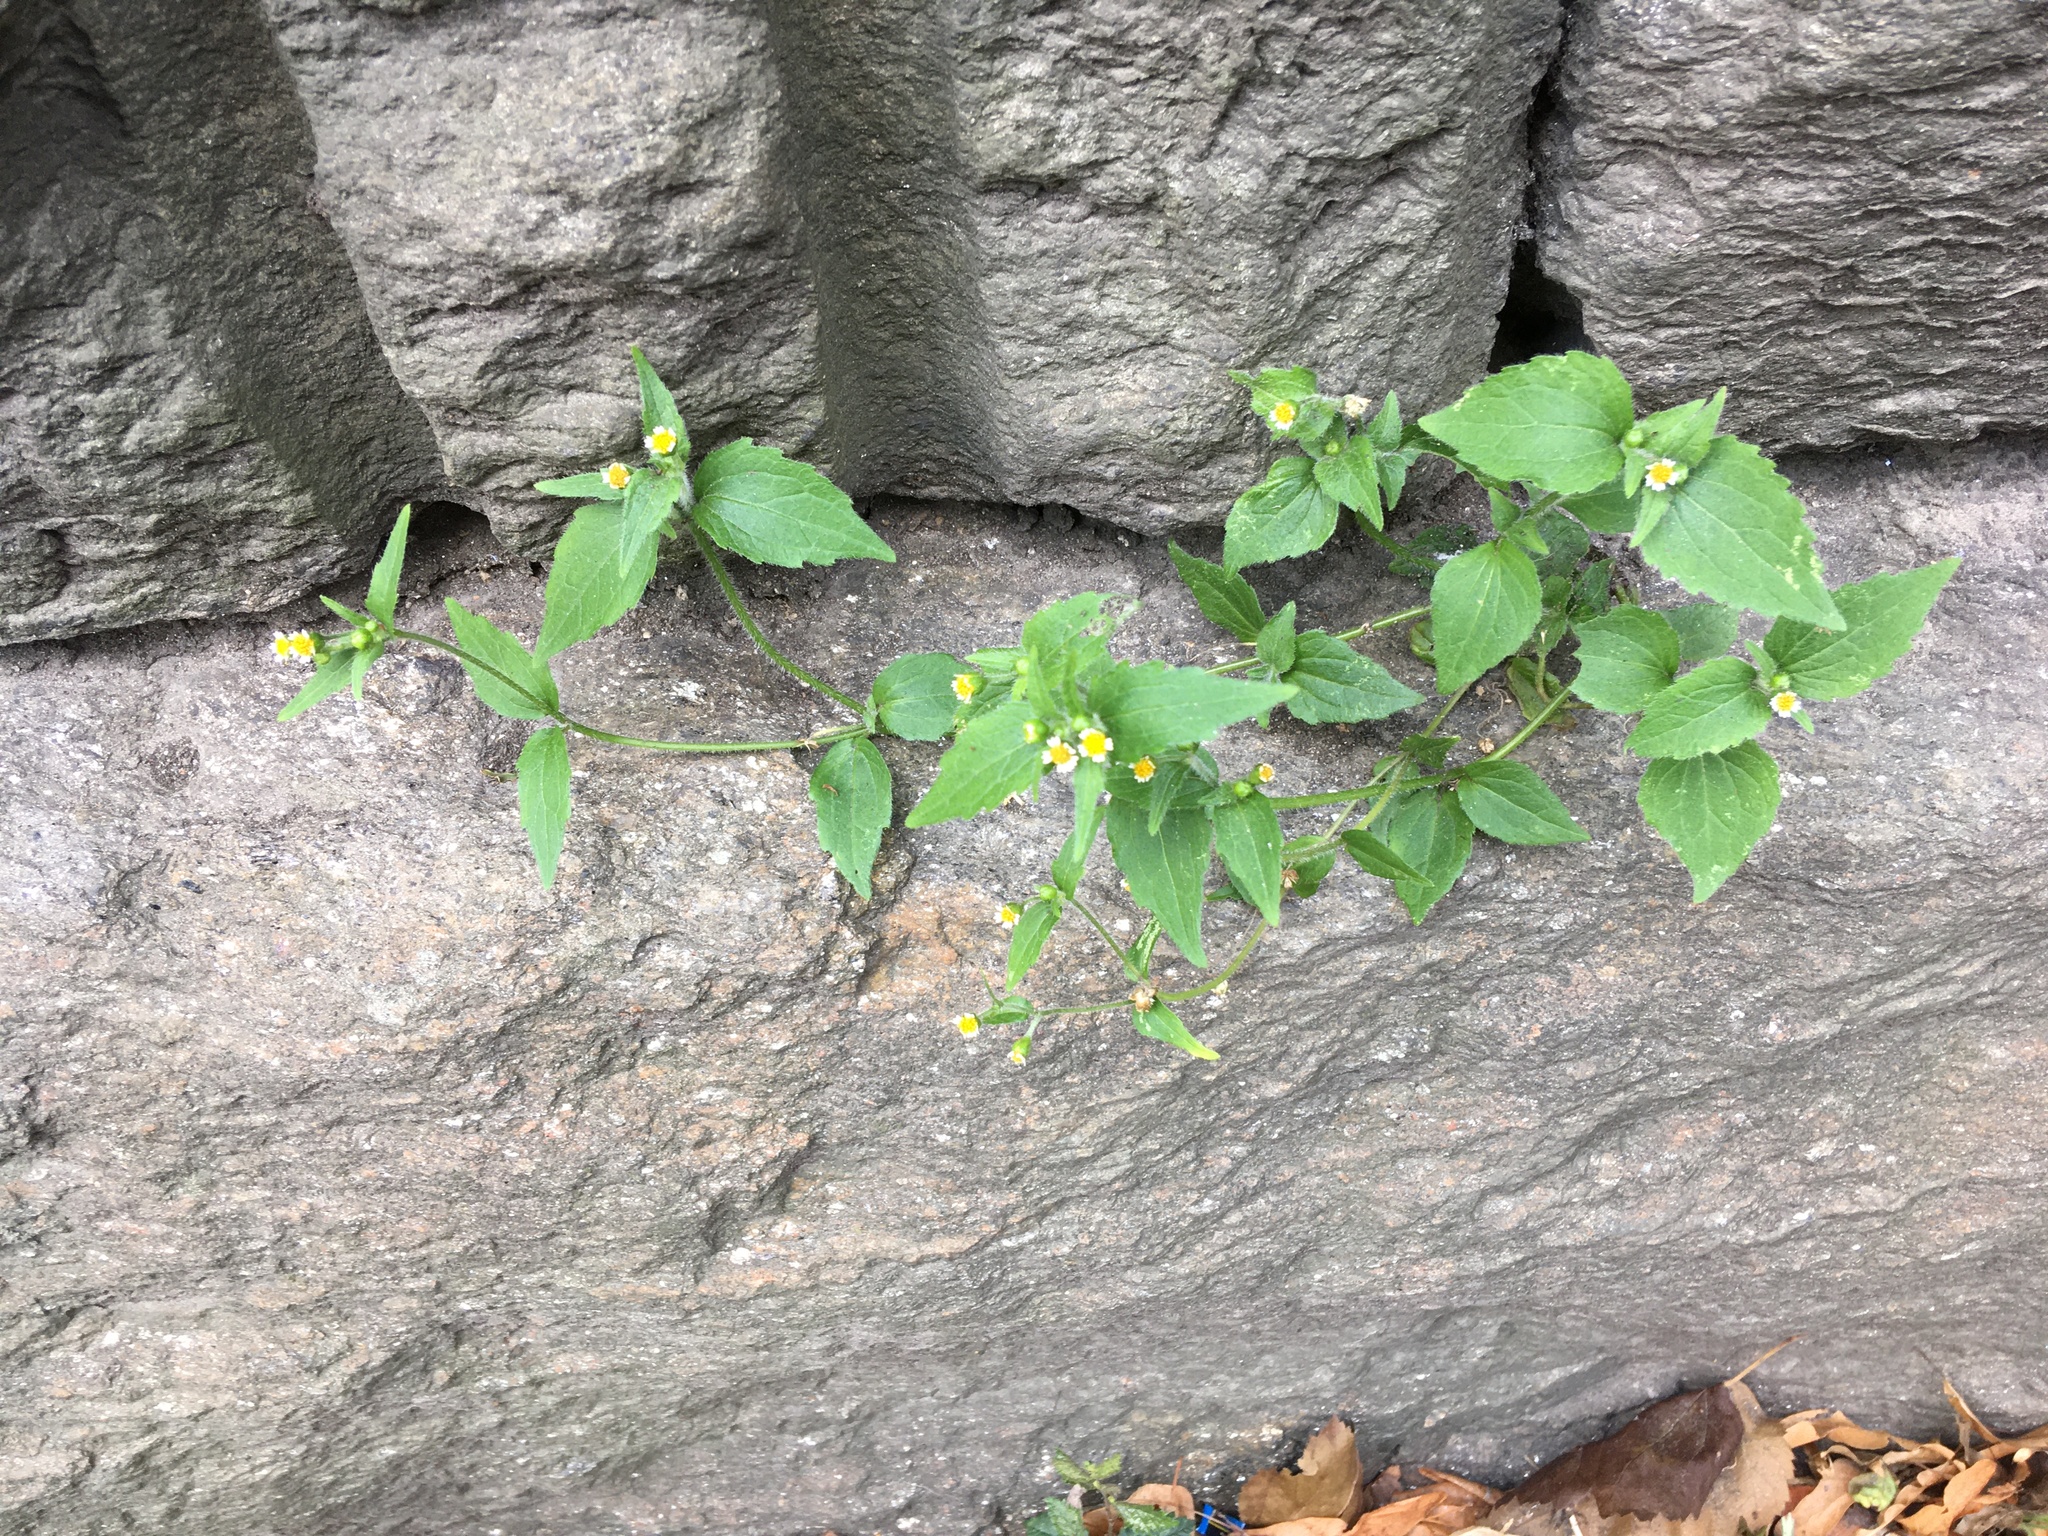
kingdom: Plantae
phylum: Tracheophyta
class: Magnoliopsida
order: Asterales
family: Asteraceae
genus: Galinsoga
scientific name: Galinsoga quadriradiata
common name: Shaggy soldier
